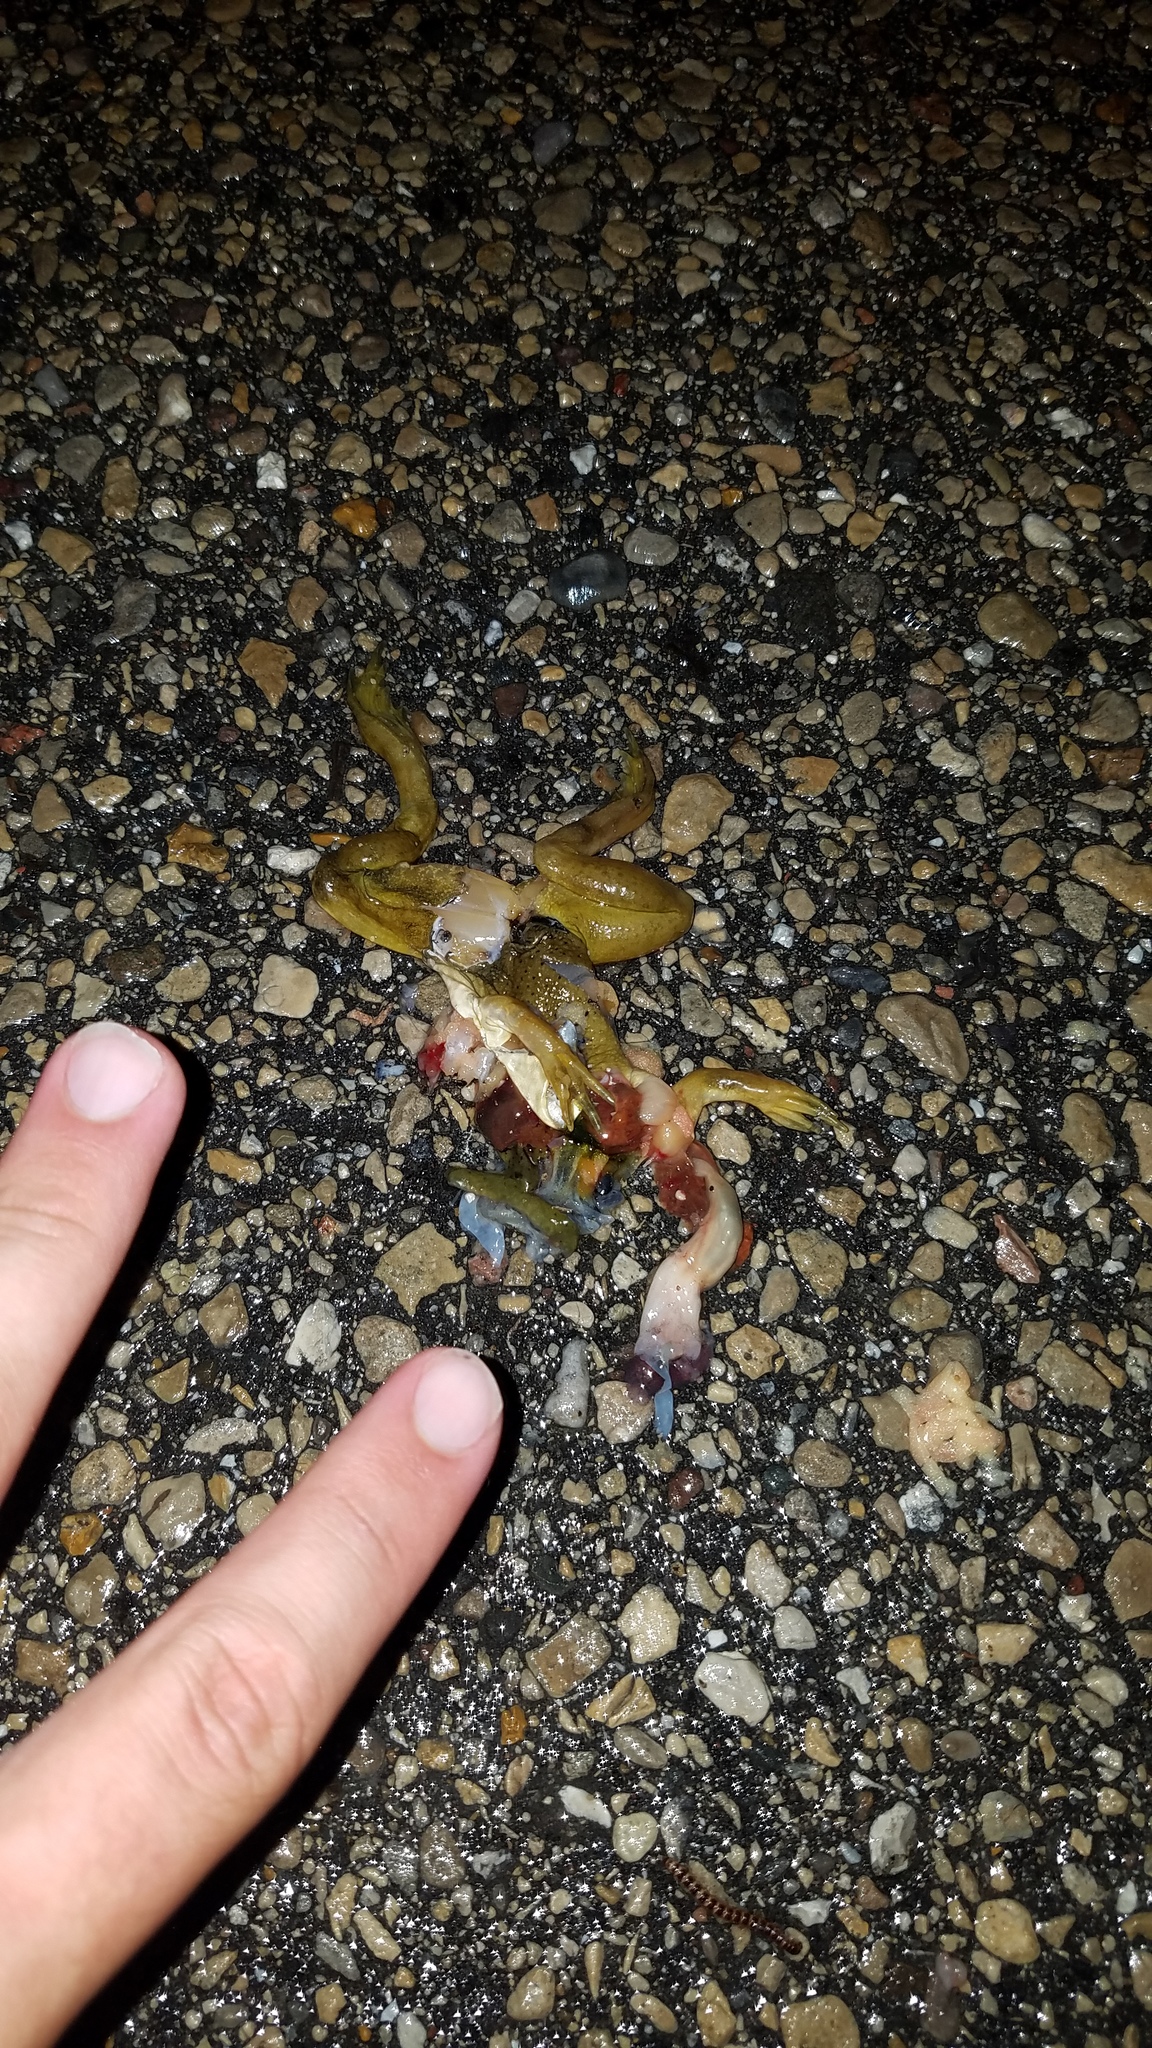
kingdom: Animalia
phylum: Chordata
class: Amphibia
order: Anura
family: Ranidae
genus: Lithobates
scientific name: Lithobates
